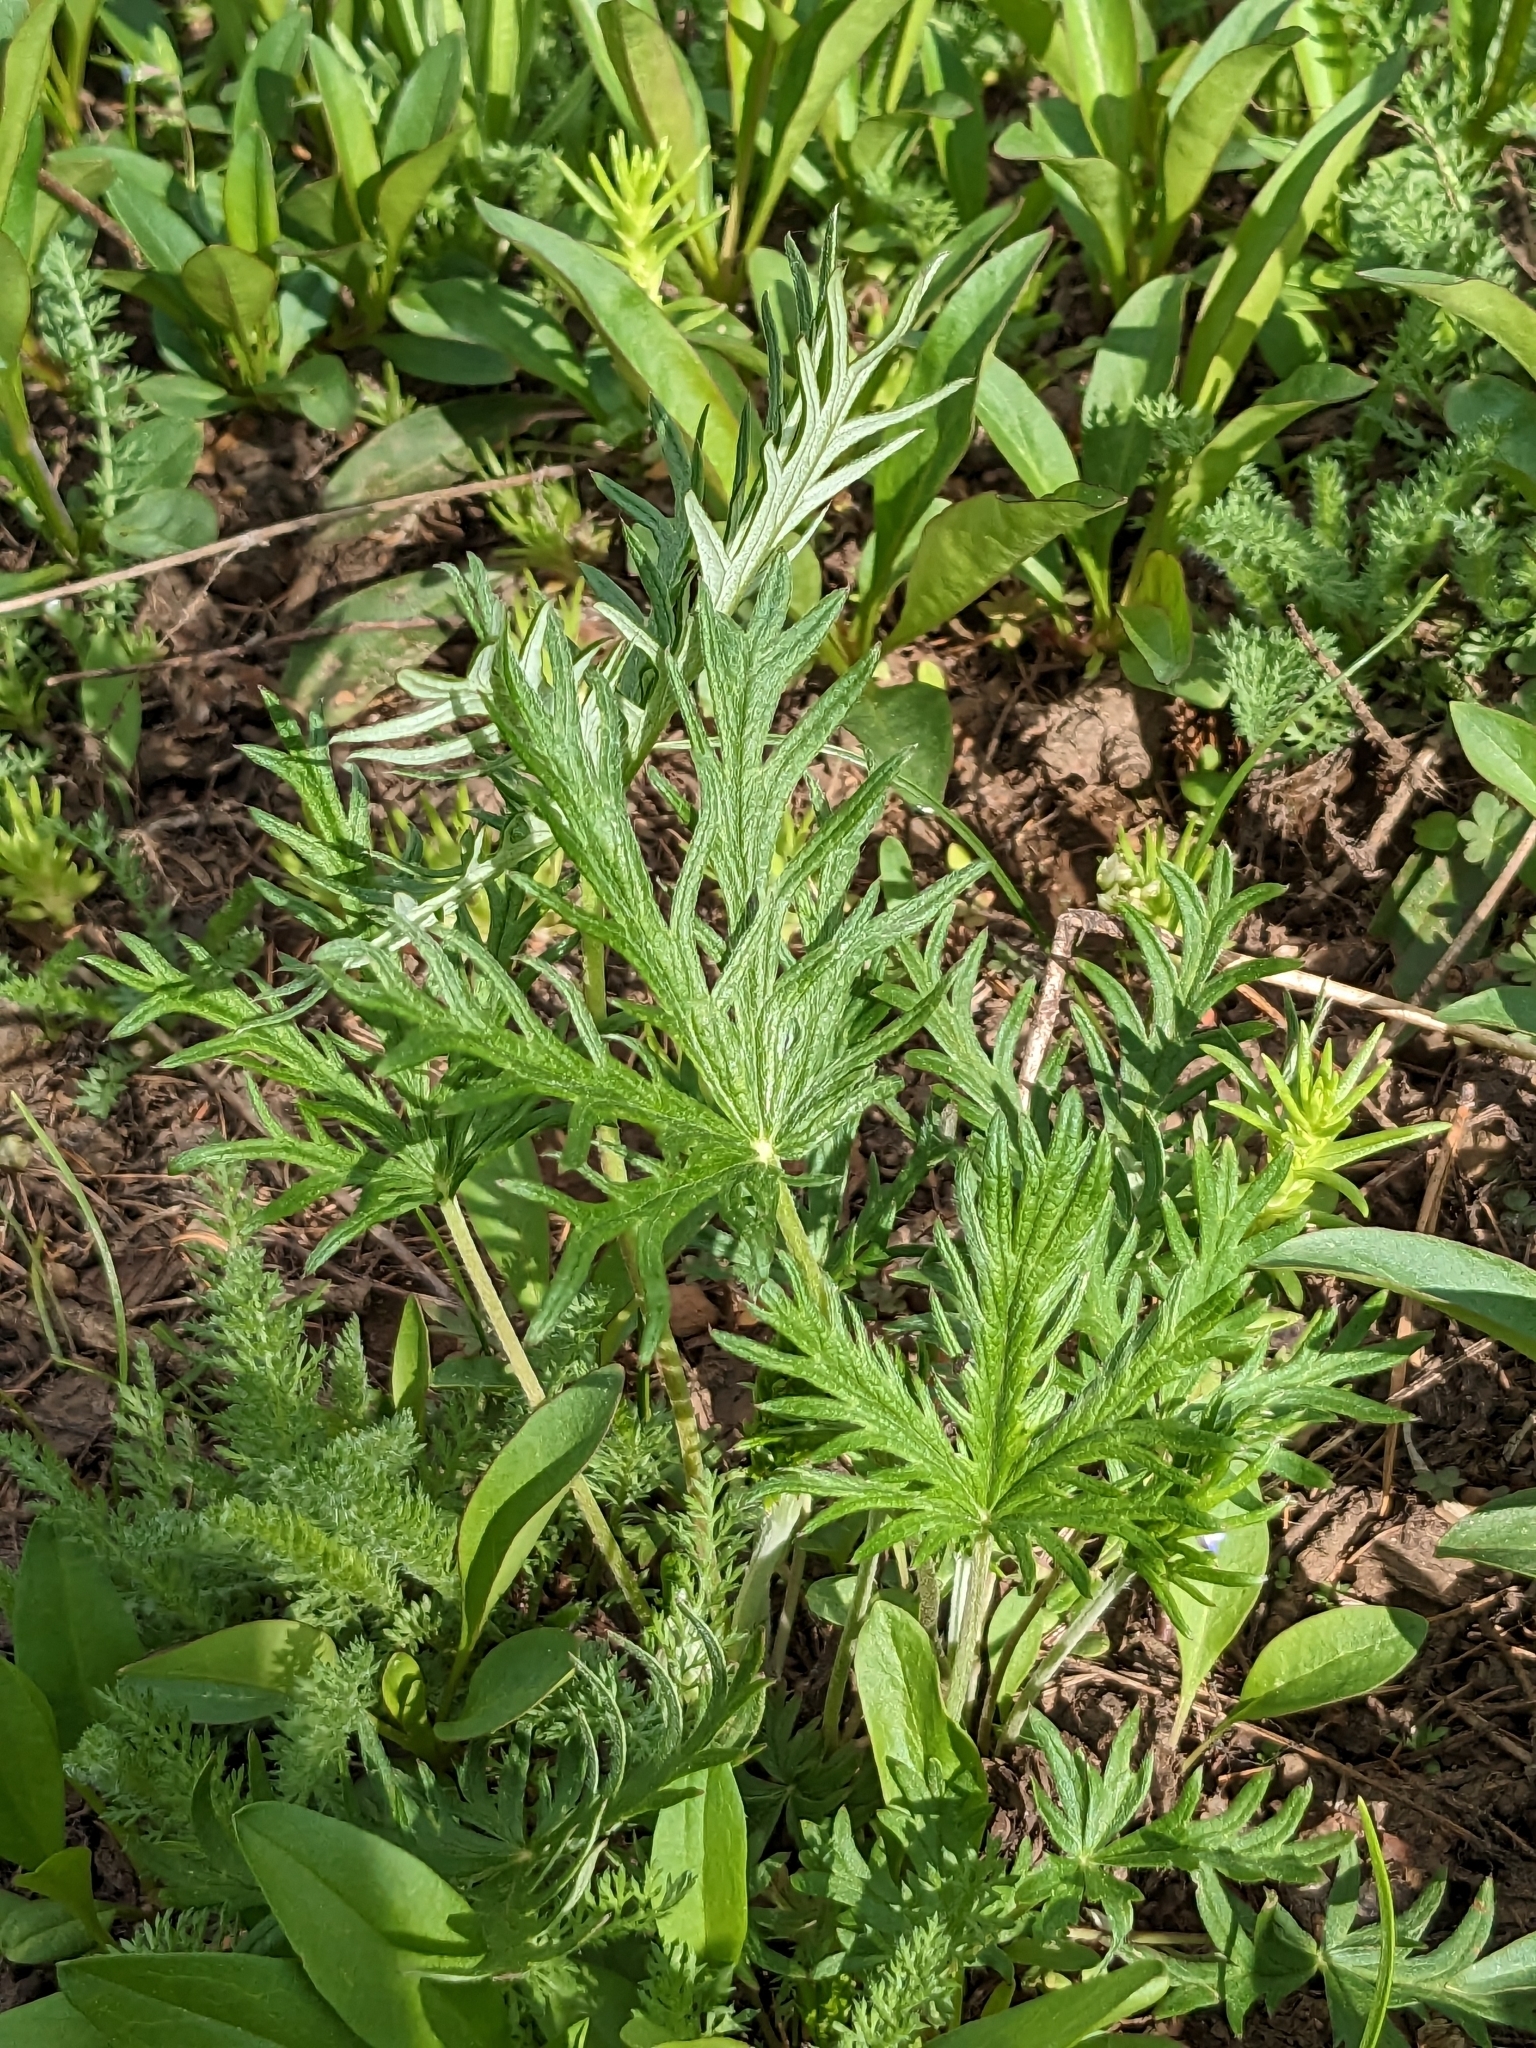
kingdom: Plantae
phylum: Tracheophyta
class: Magnoliopsida
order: Rosales
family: Rosaceae
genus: Potentilla
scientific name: Potentilla gracilis
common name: Graceful cinquefoil
